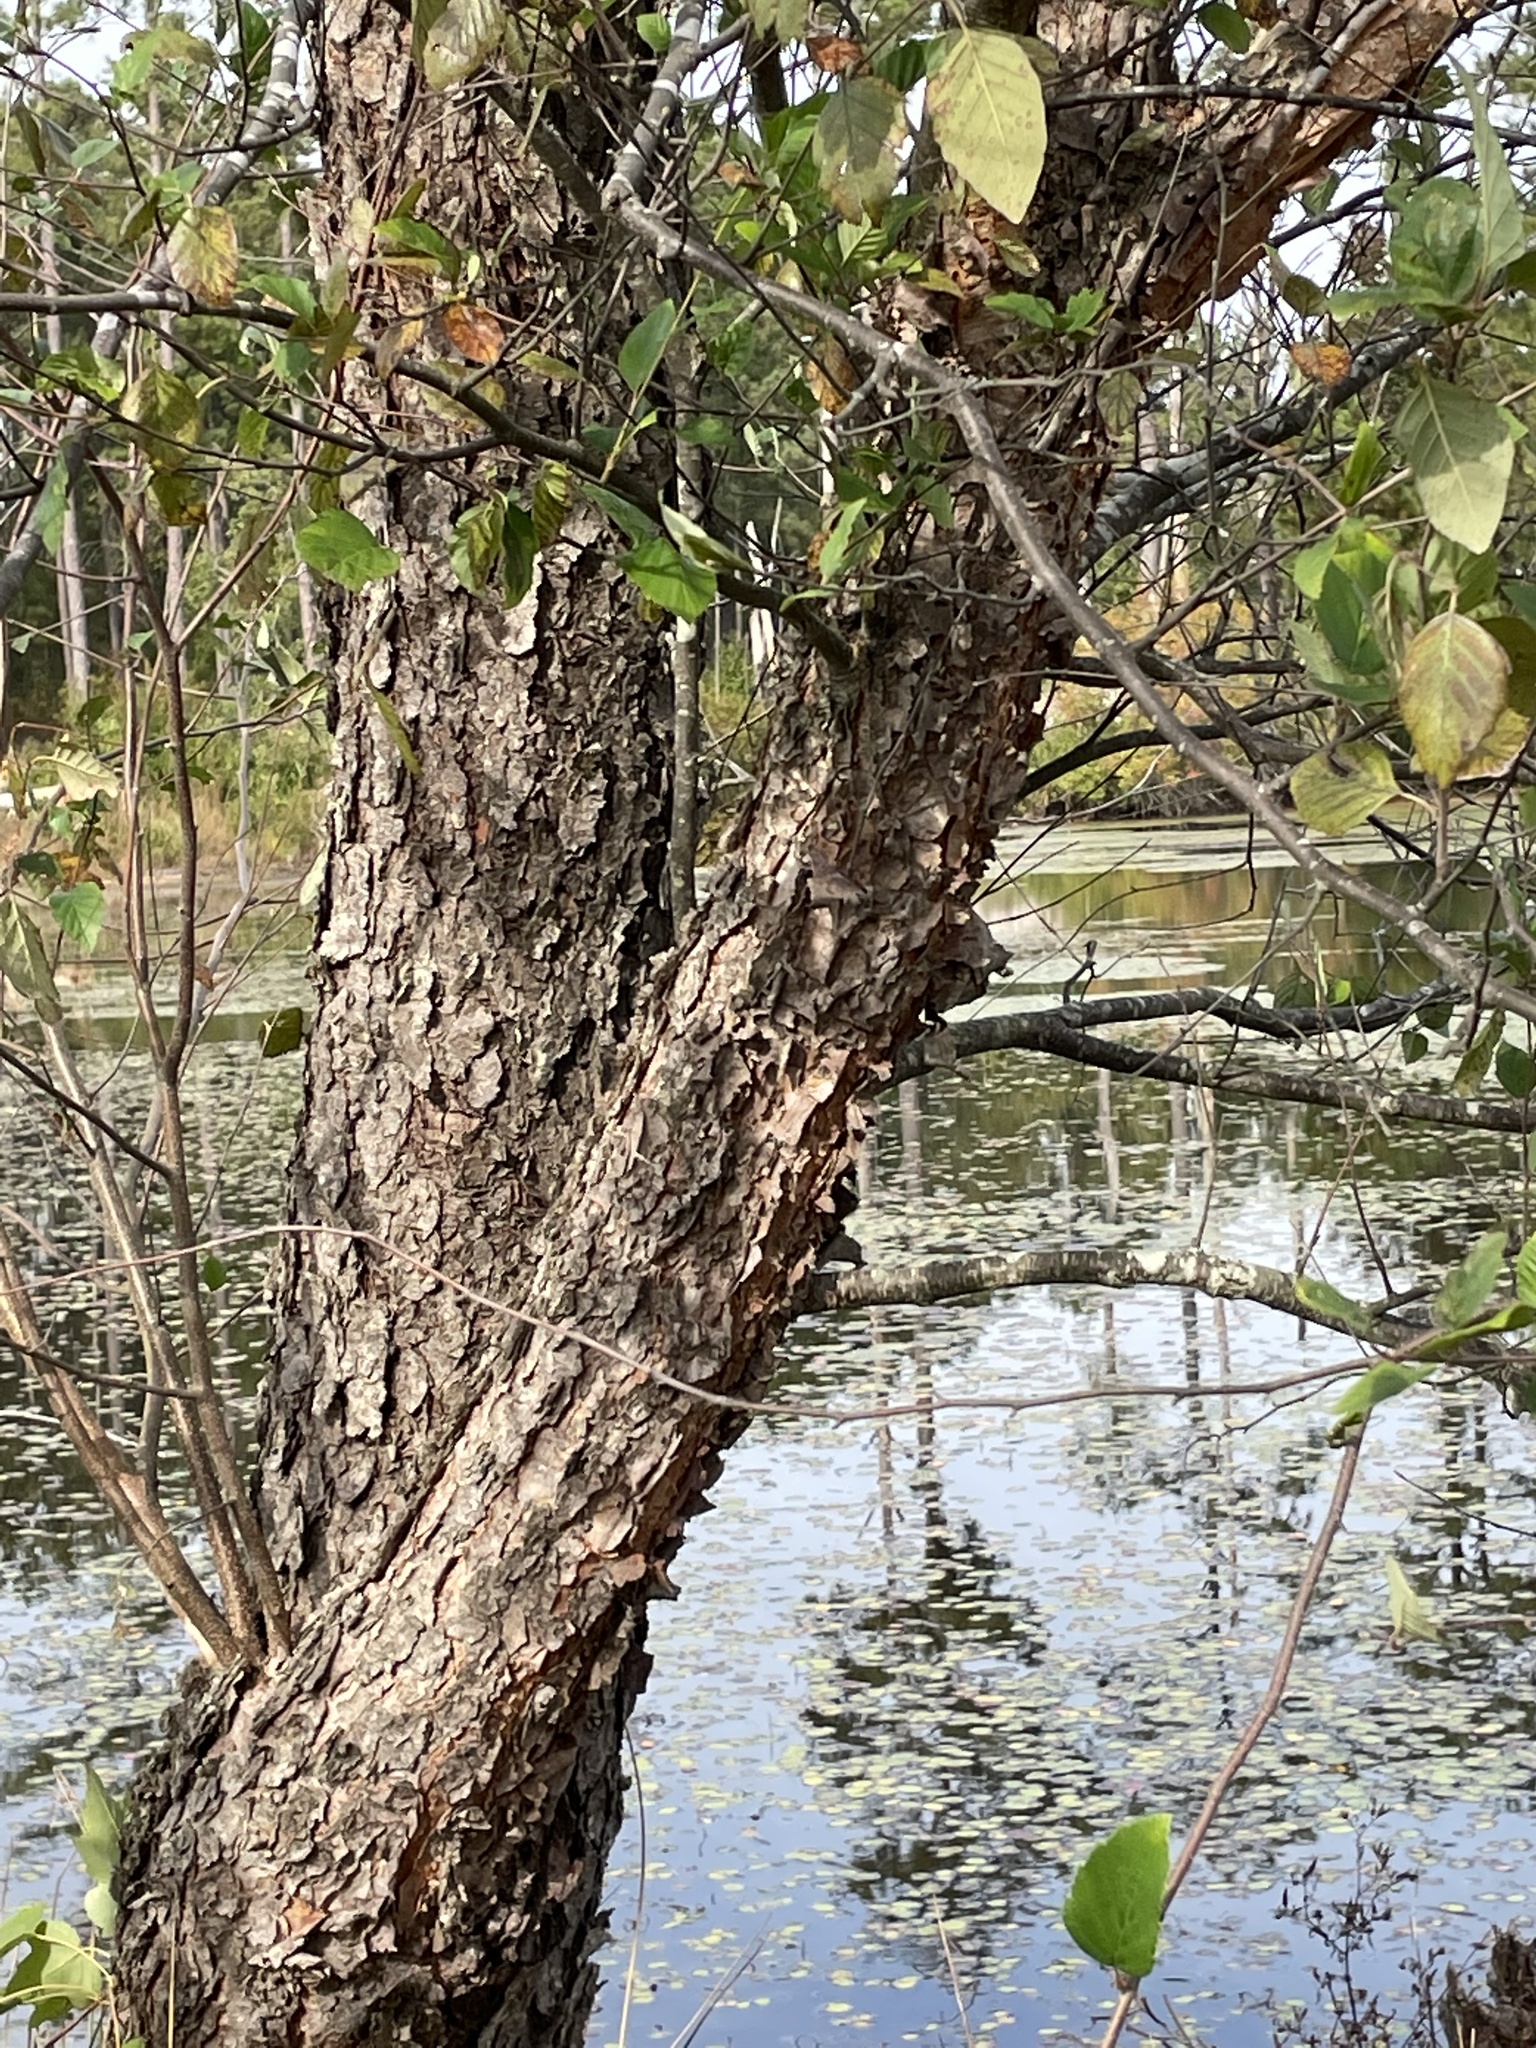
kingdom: Plantae
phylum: Tracheophyta
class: Magnoliopsida
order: Fagales
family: Betulaceae
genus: Betula
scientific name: Betula nigra
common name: Black birch
